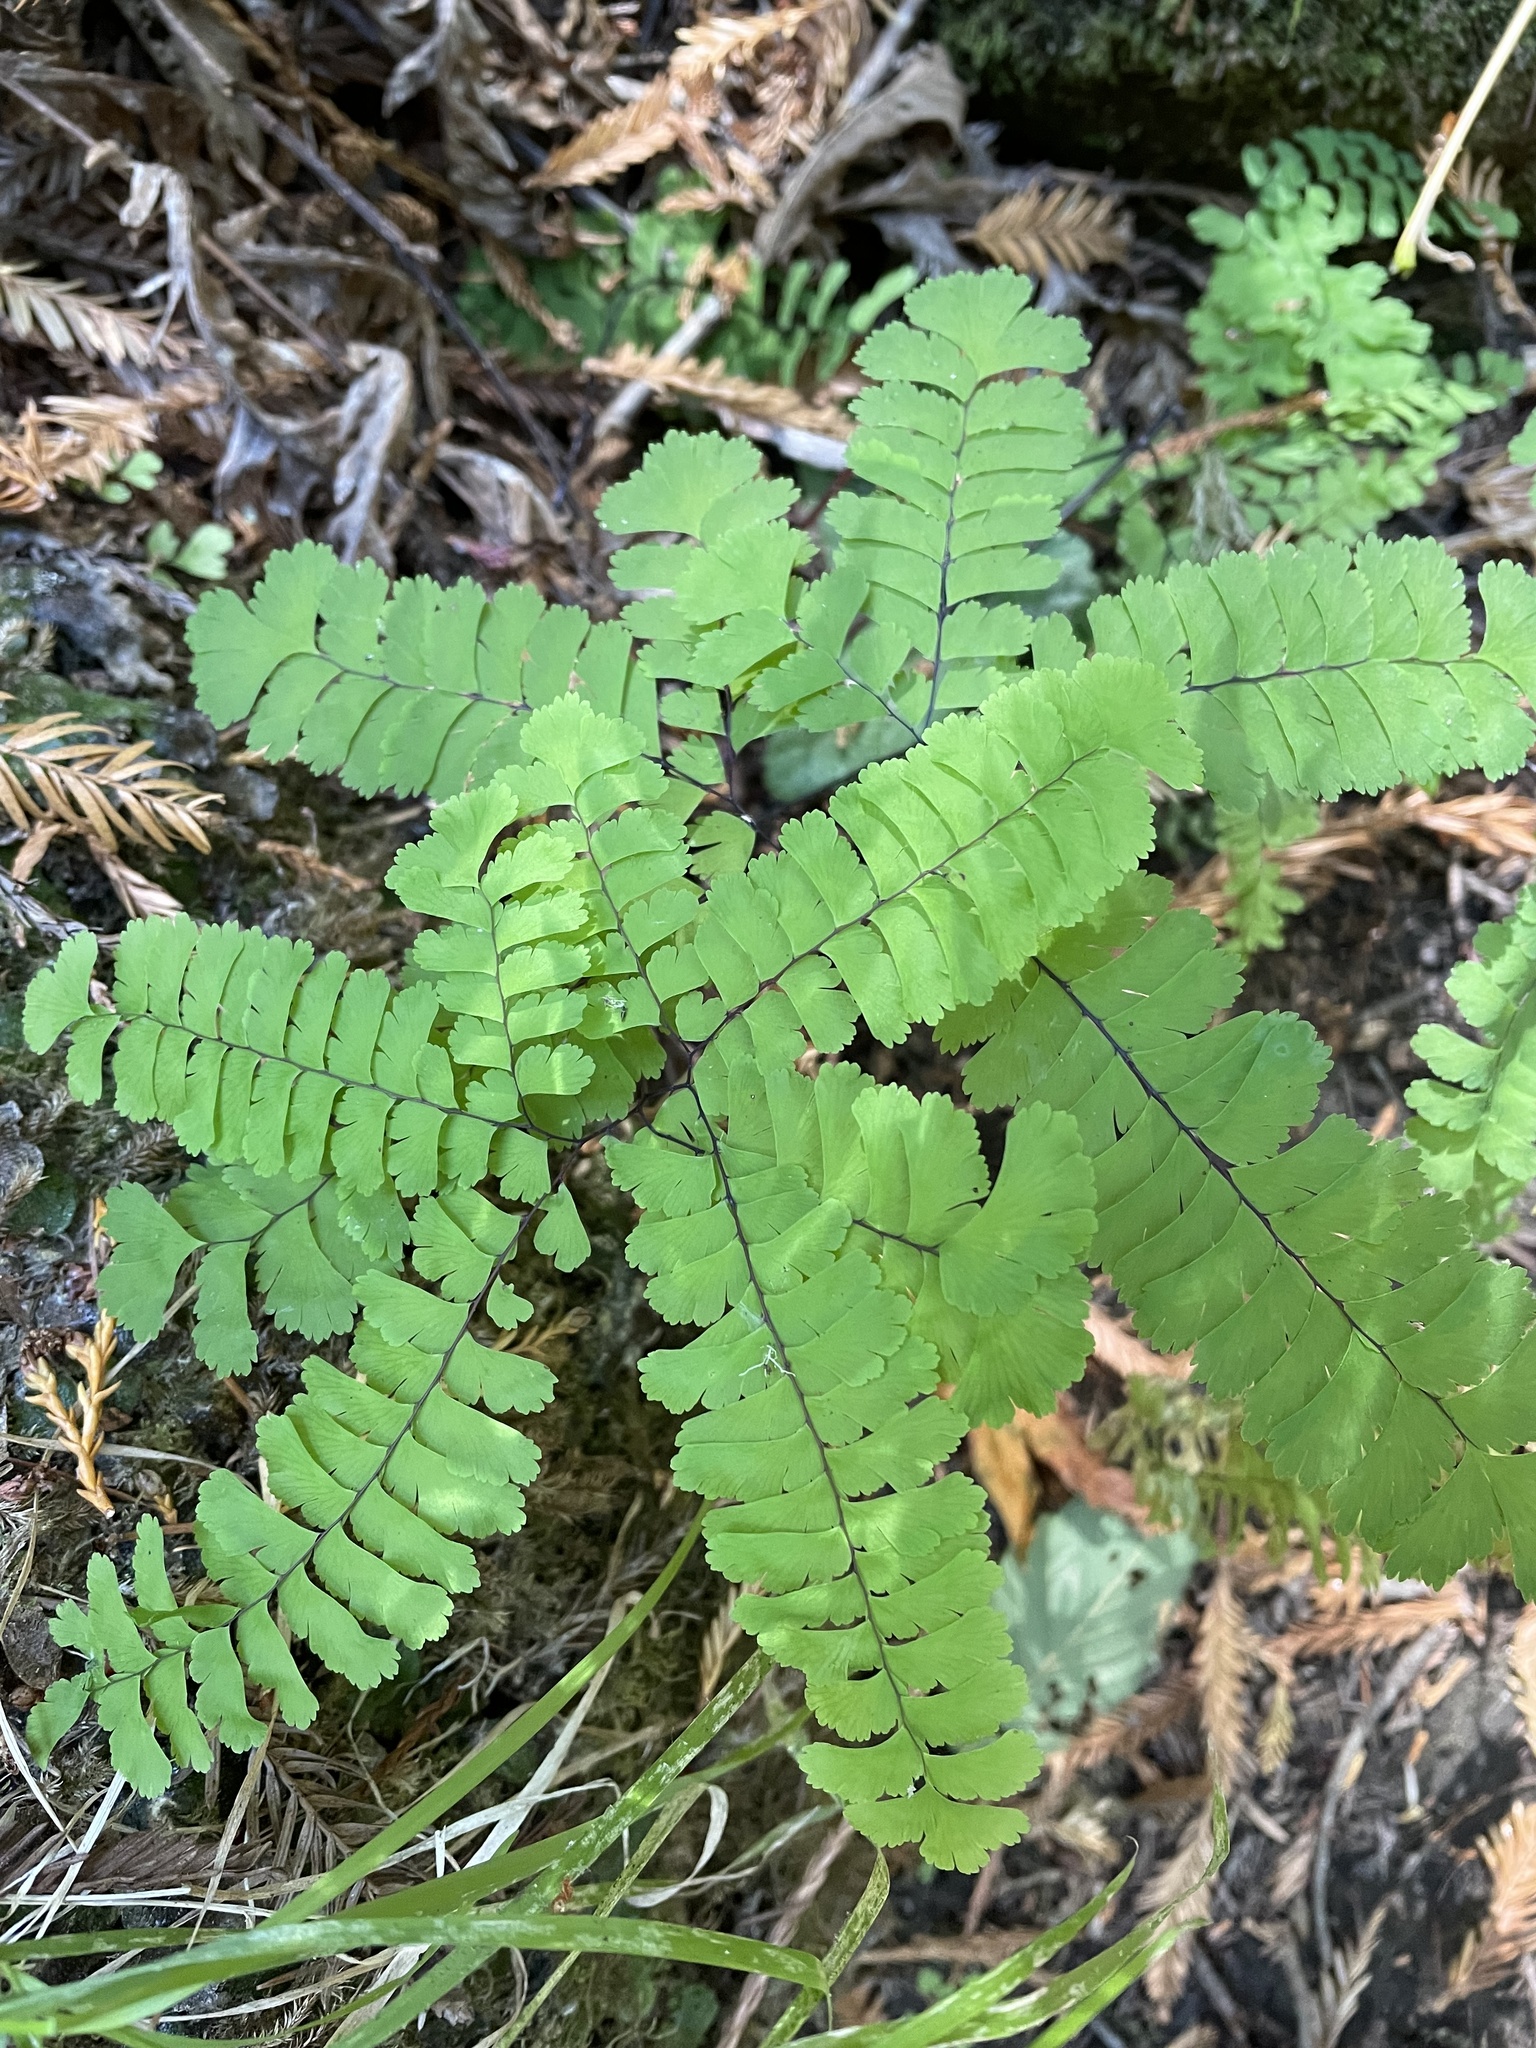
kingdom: Plantae
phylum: Tracheophyta
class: Polypodiopsida
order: Polypodiales
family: Pteridaceae
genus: Adiantum
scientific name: Adiantum aleuticum
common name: Aleutian maidenhair fern
